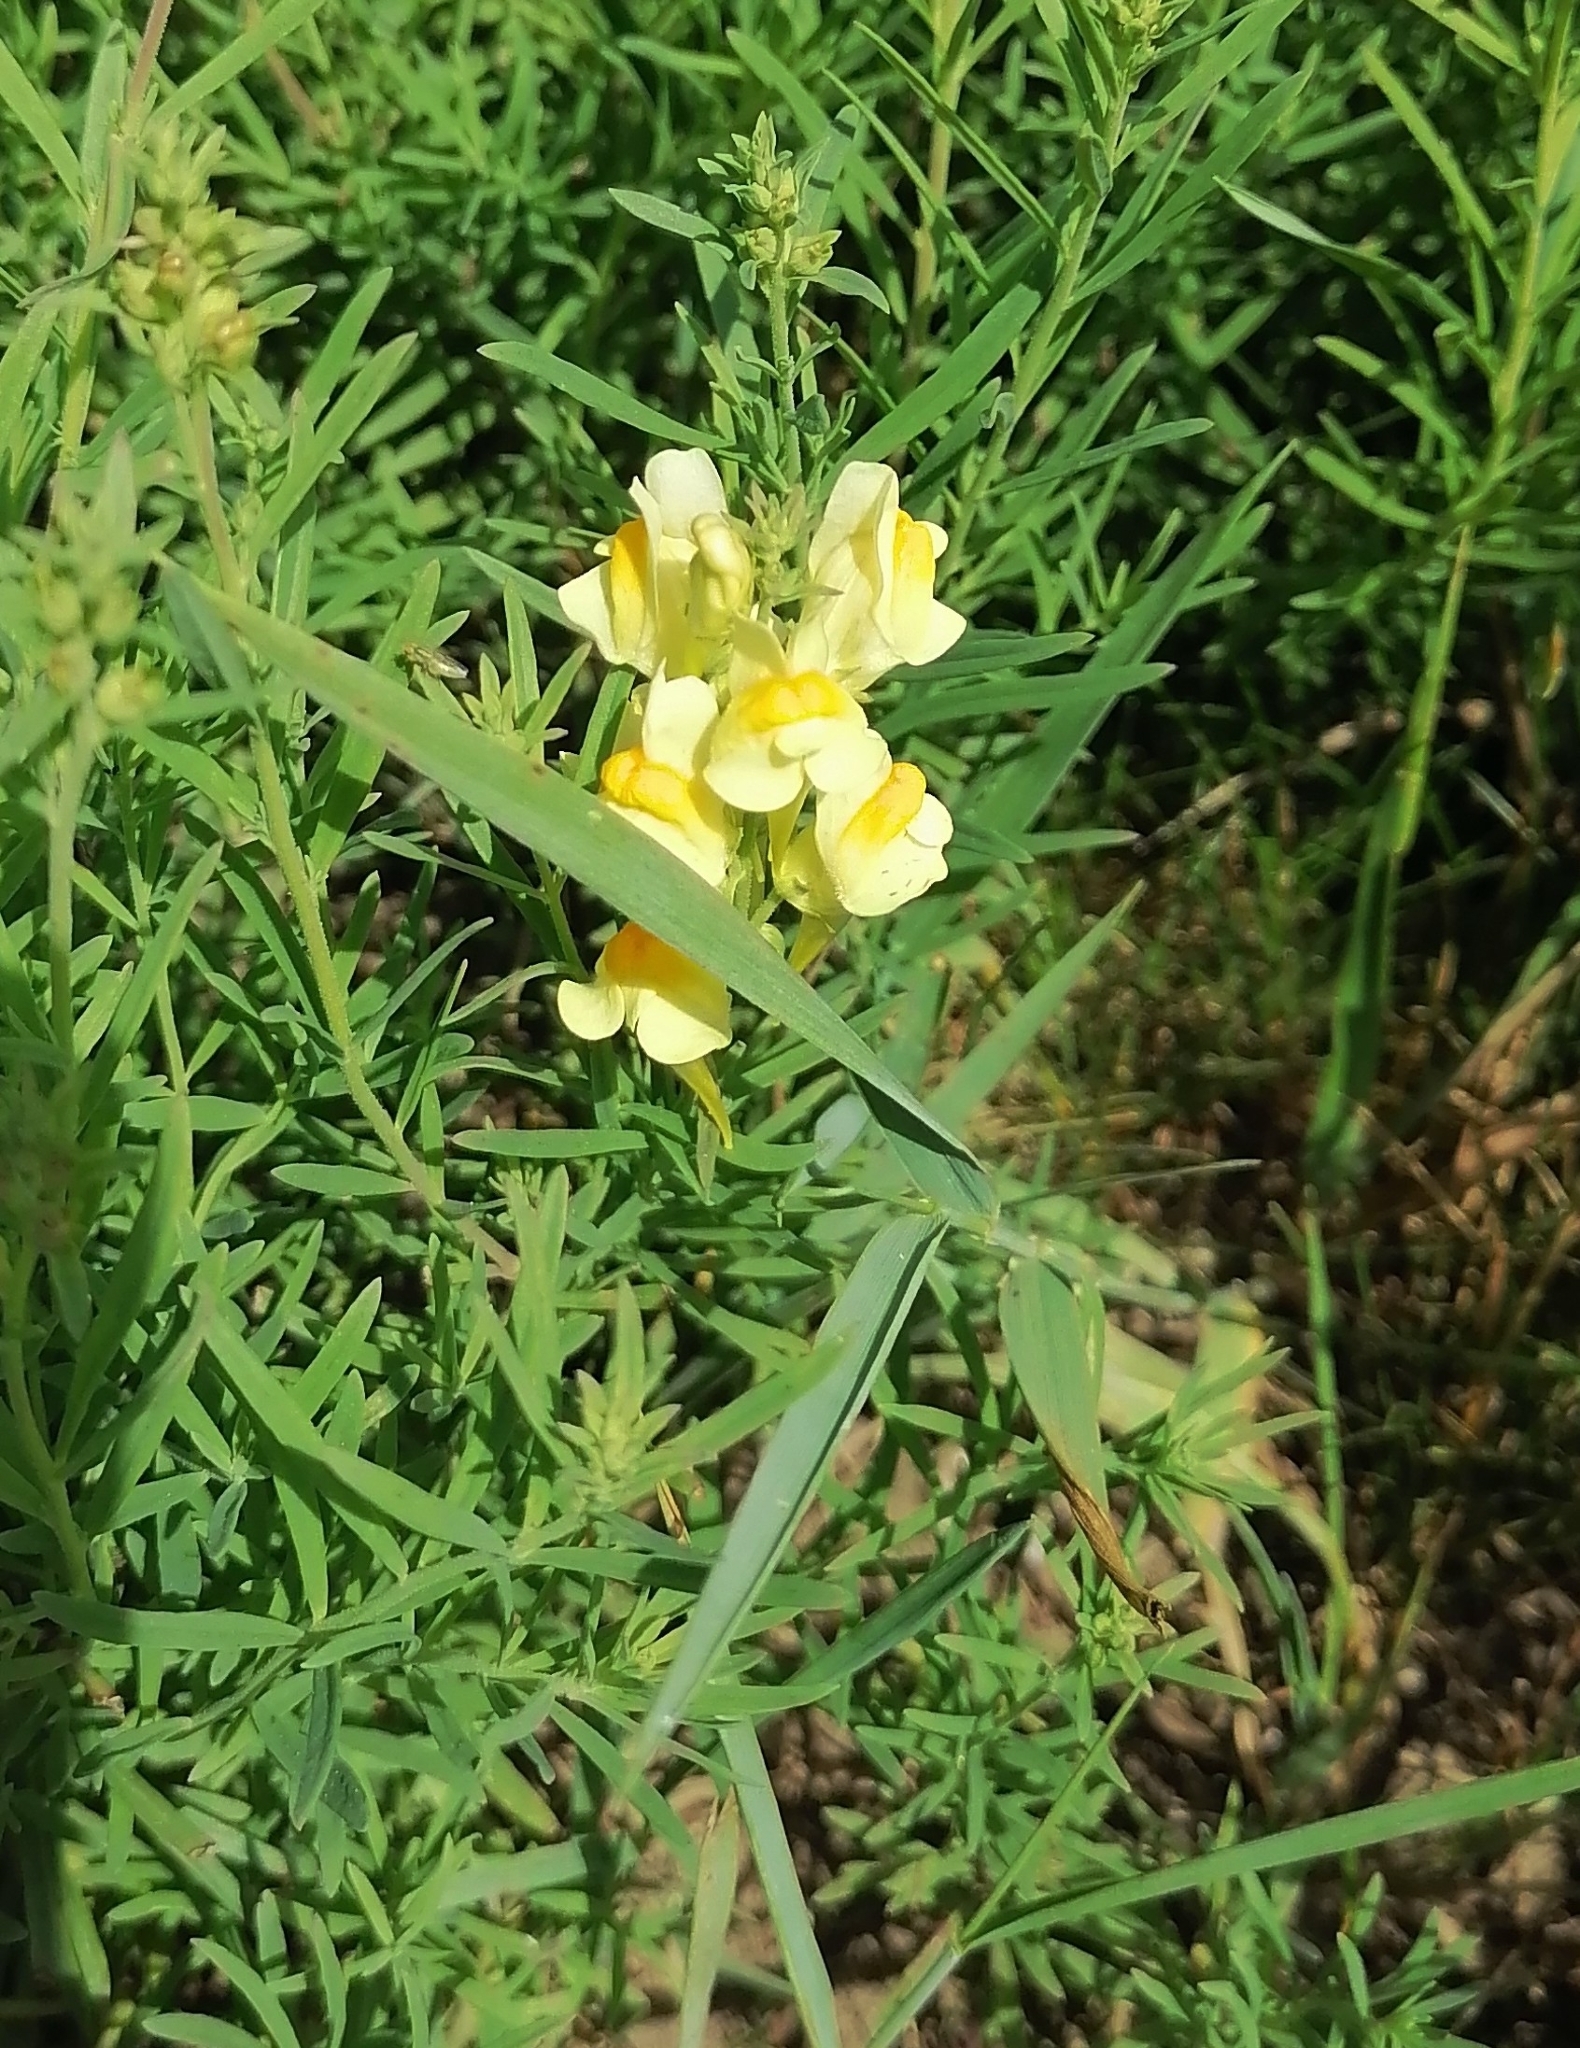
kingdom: Plantae
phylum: Tracheophyta
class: Magnoliopsida
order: Lamiales
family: Plantaginaceae
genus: Linaria
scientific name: Linaria vulgaris
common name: Butter and eggs
